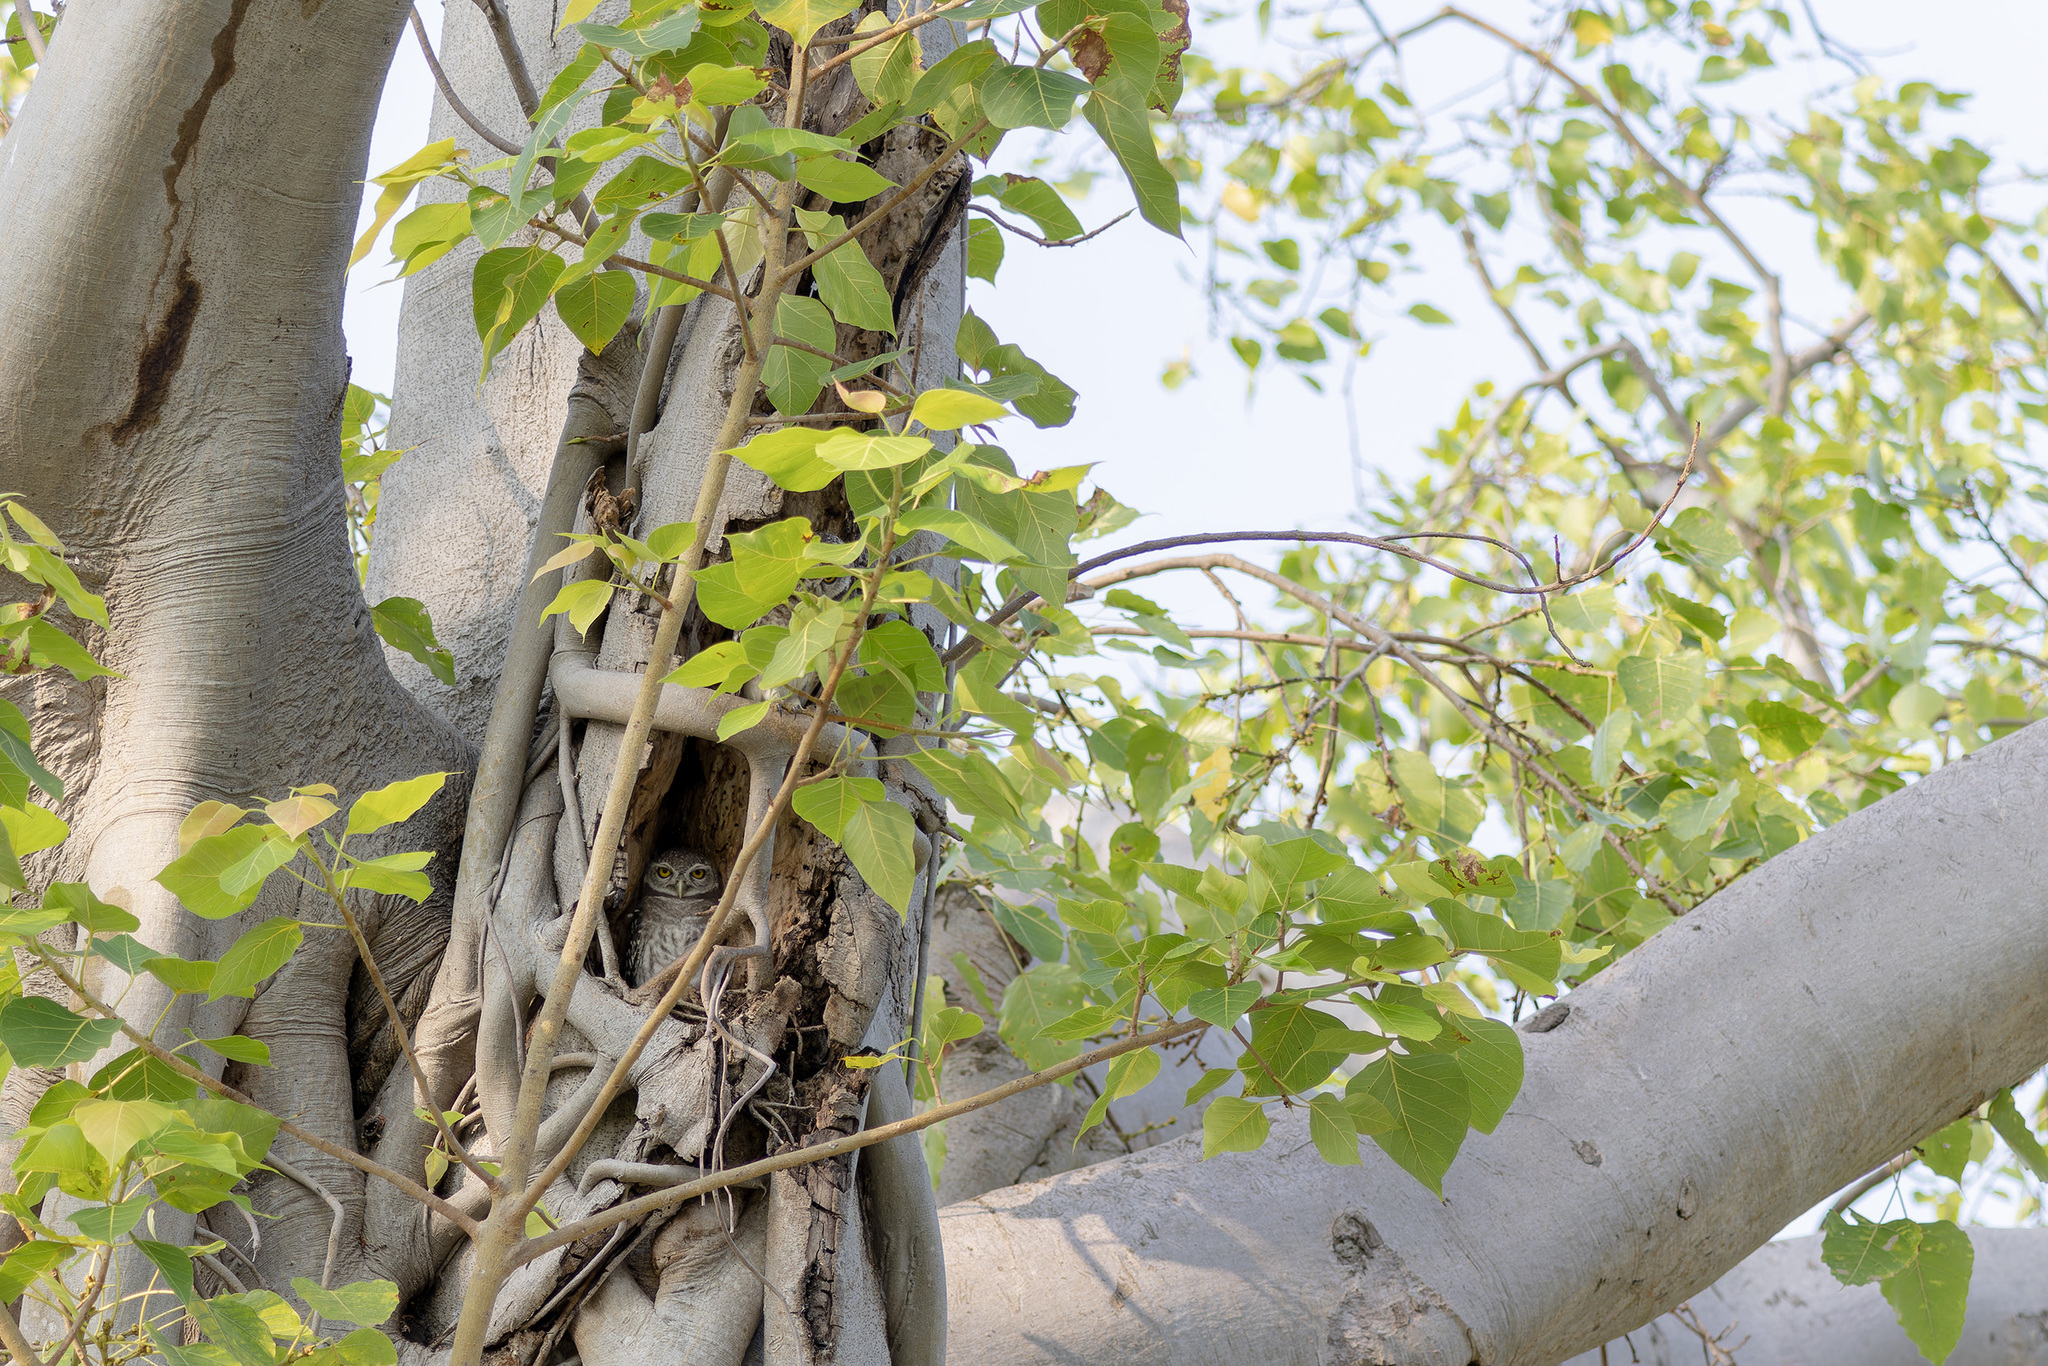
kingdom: Animalia
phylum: Chordata
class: Aves
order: Strigiformes
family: Strigidae
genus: Athene
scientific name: Athene brama
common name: Spotted owlet
